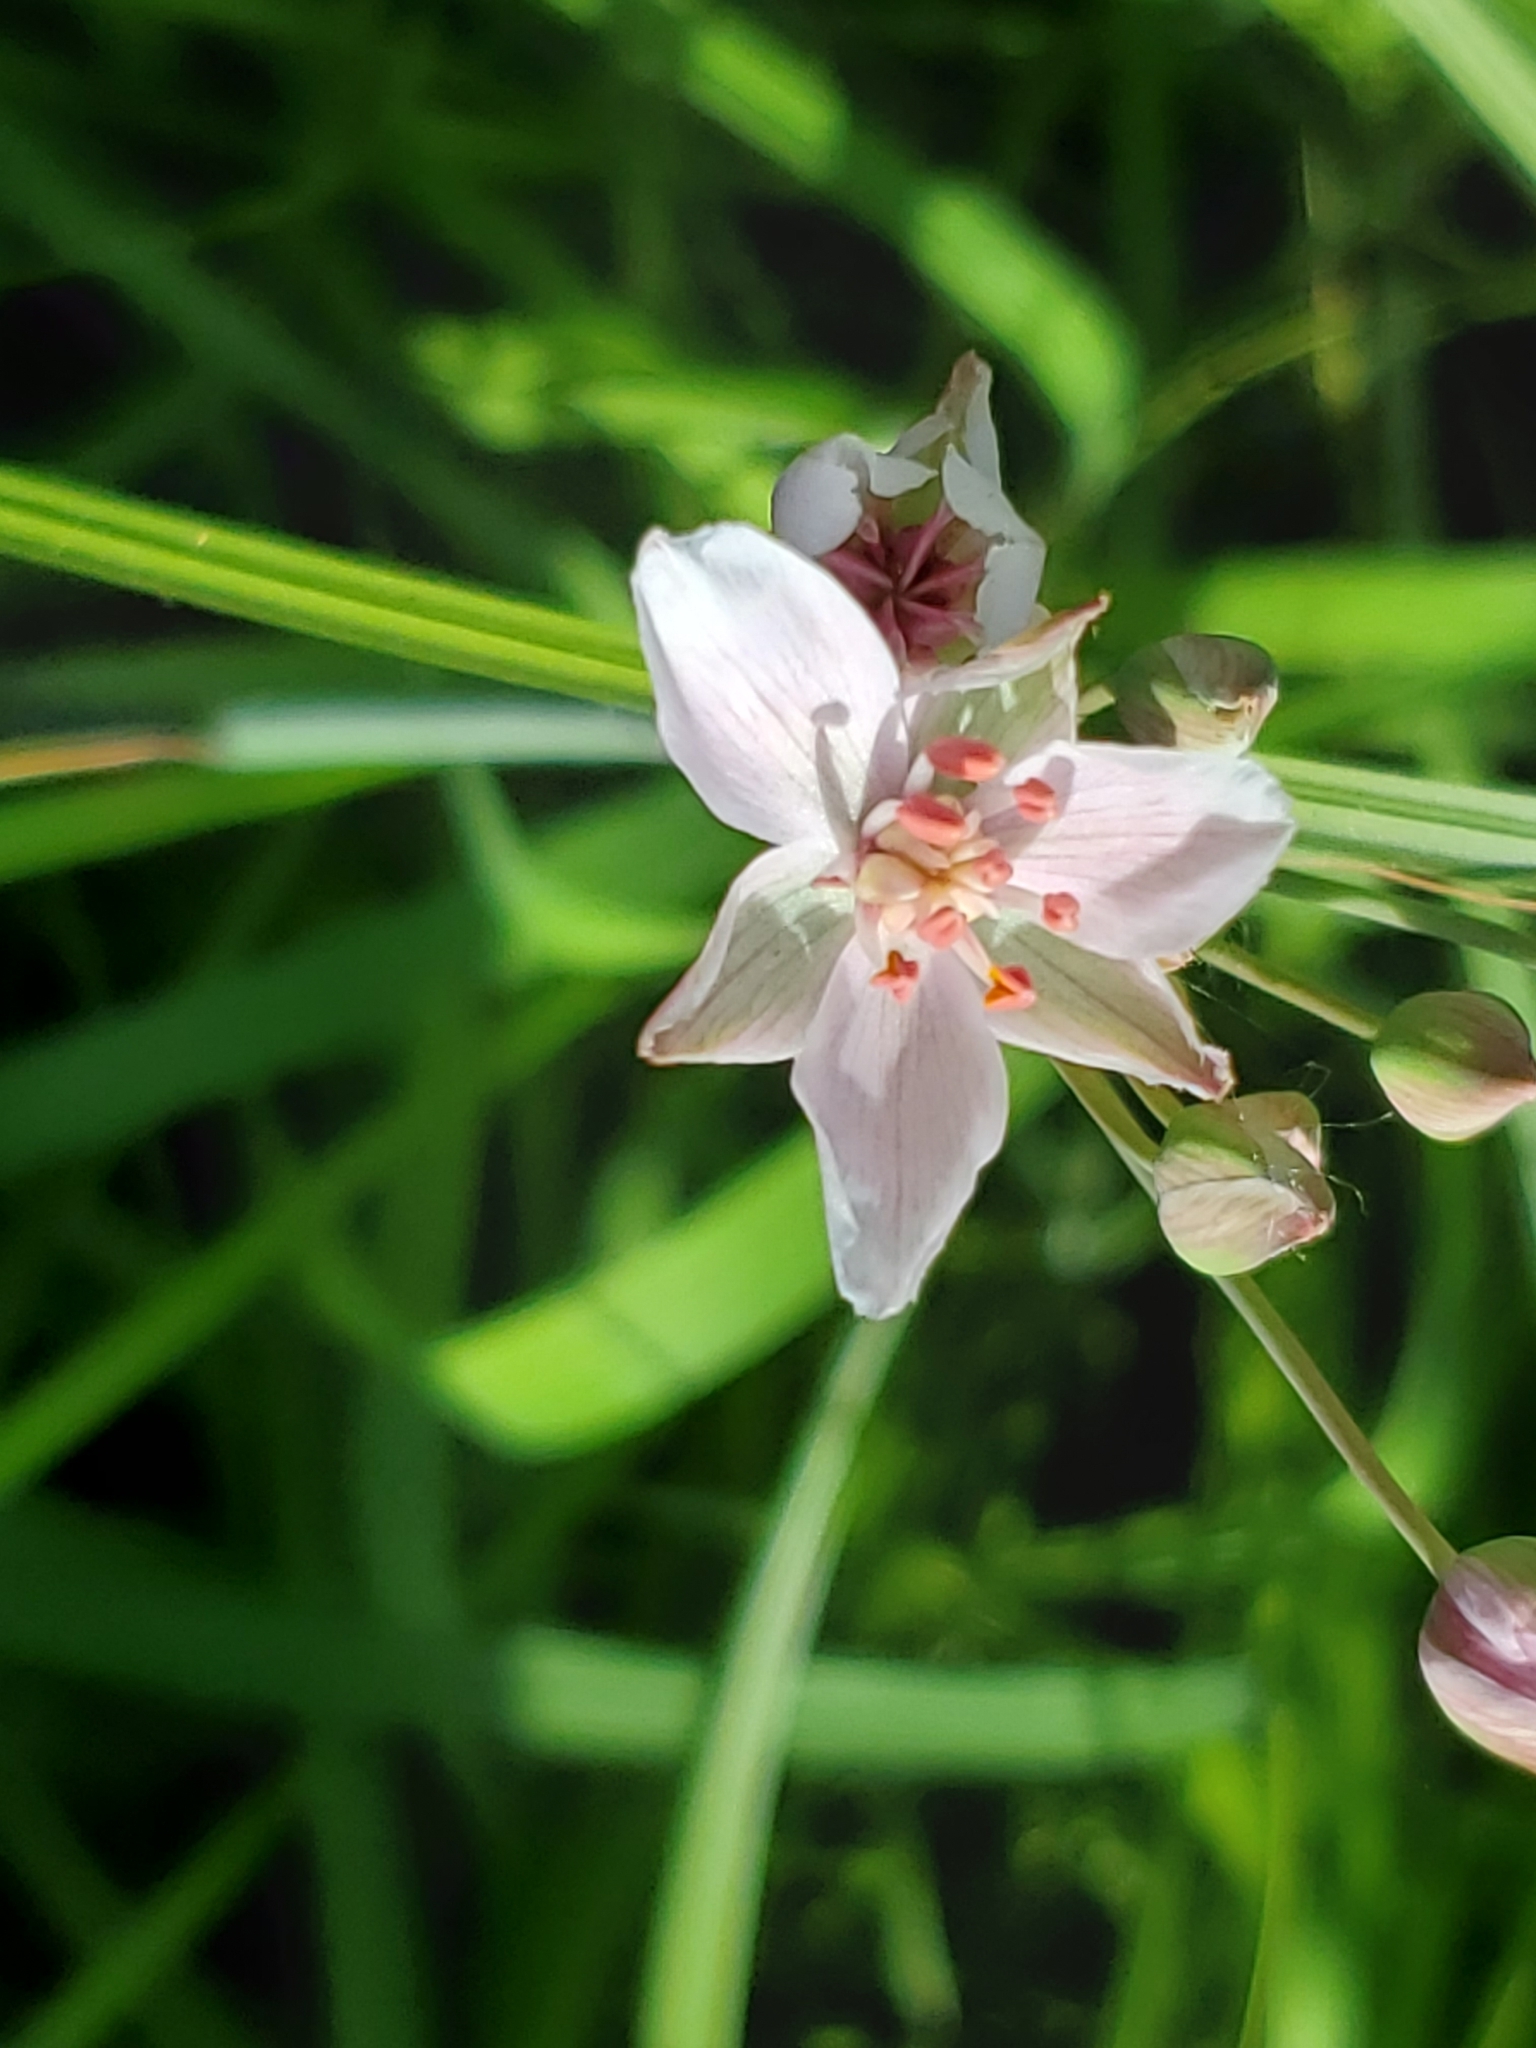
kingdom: Plantae
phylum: Tracheophyta
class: Liliopsida
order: Alismatales
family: Butomaceae
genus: Butomus
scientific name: Butomus umbellatus
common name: Flowering-rush
